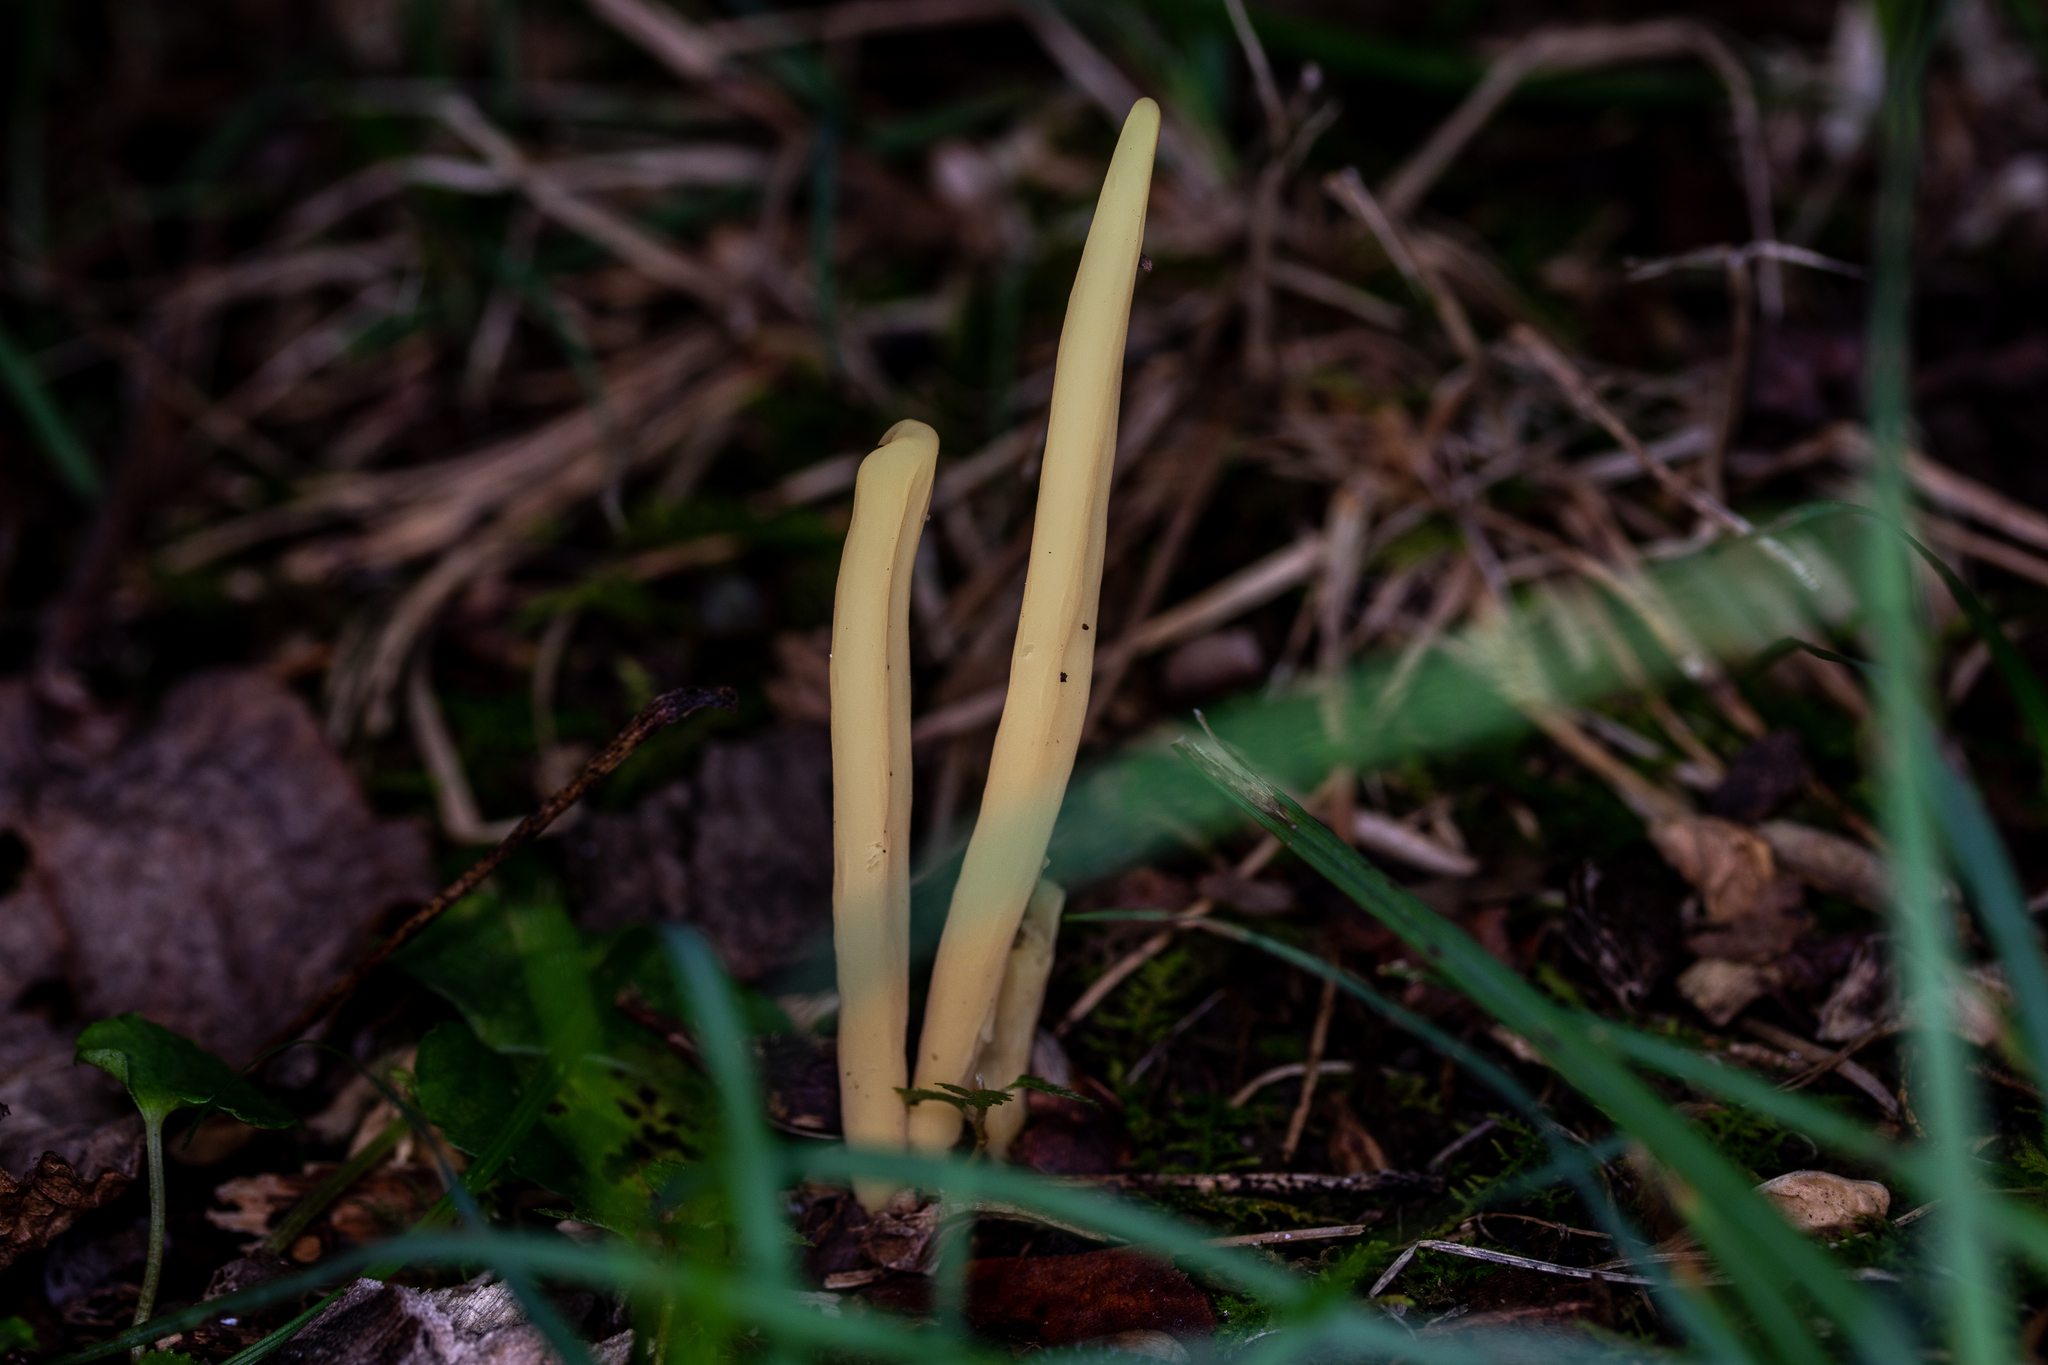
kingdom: Fungi
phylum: Basidiomycota
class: Agaricomycetes
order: Agaricales
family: Clavariaceae
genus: Clavulinopsis
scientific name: Clavulinopsis fusiformis
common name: Golden spindles
